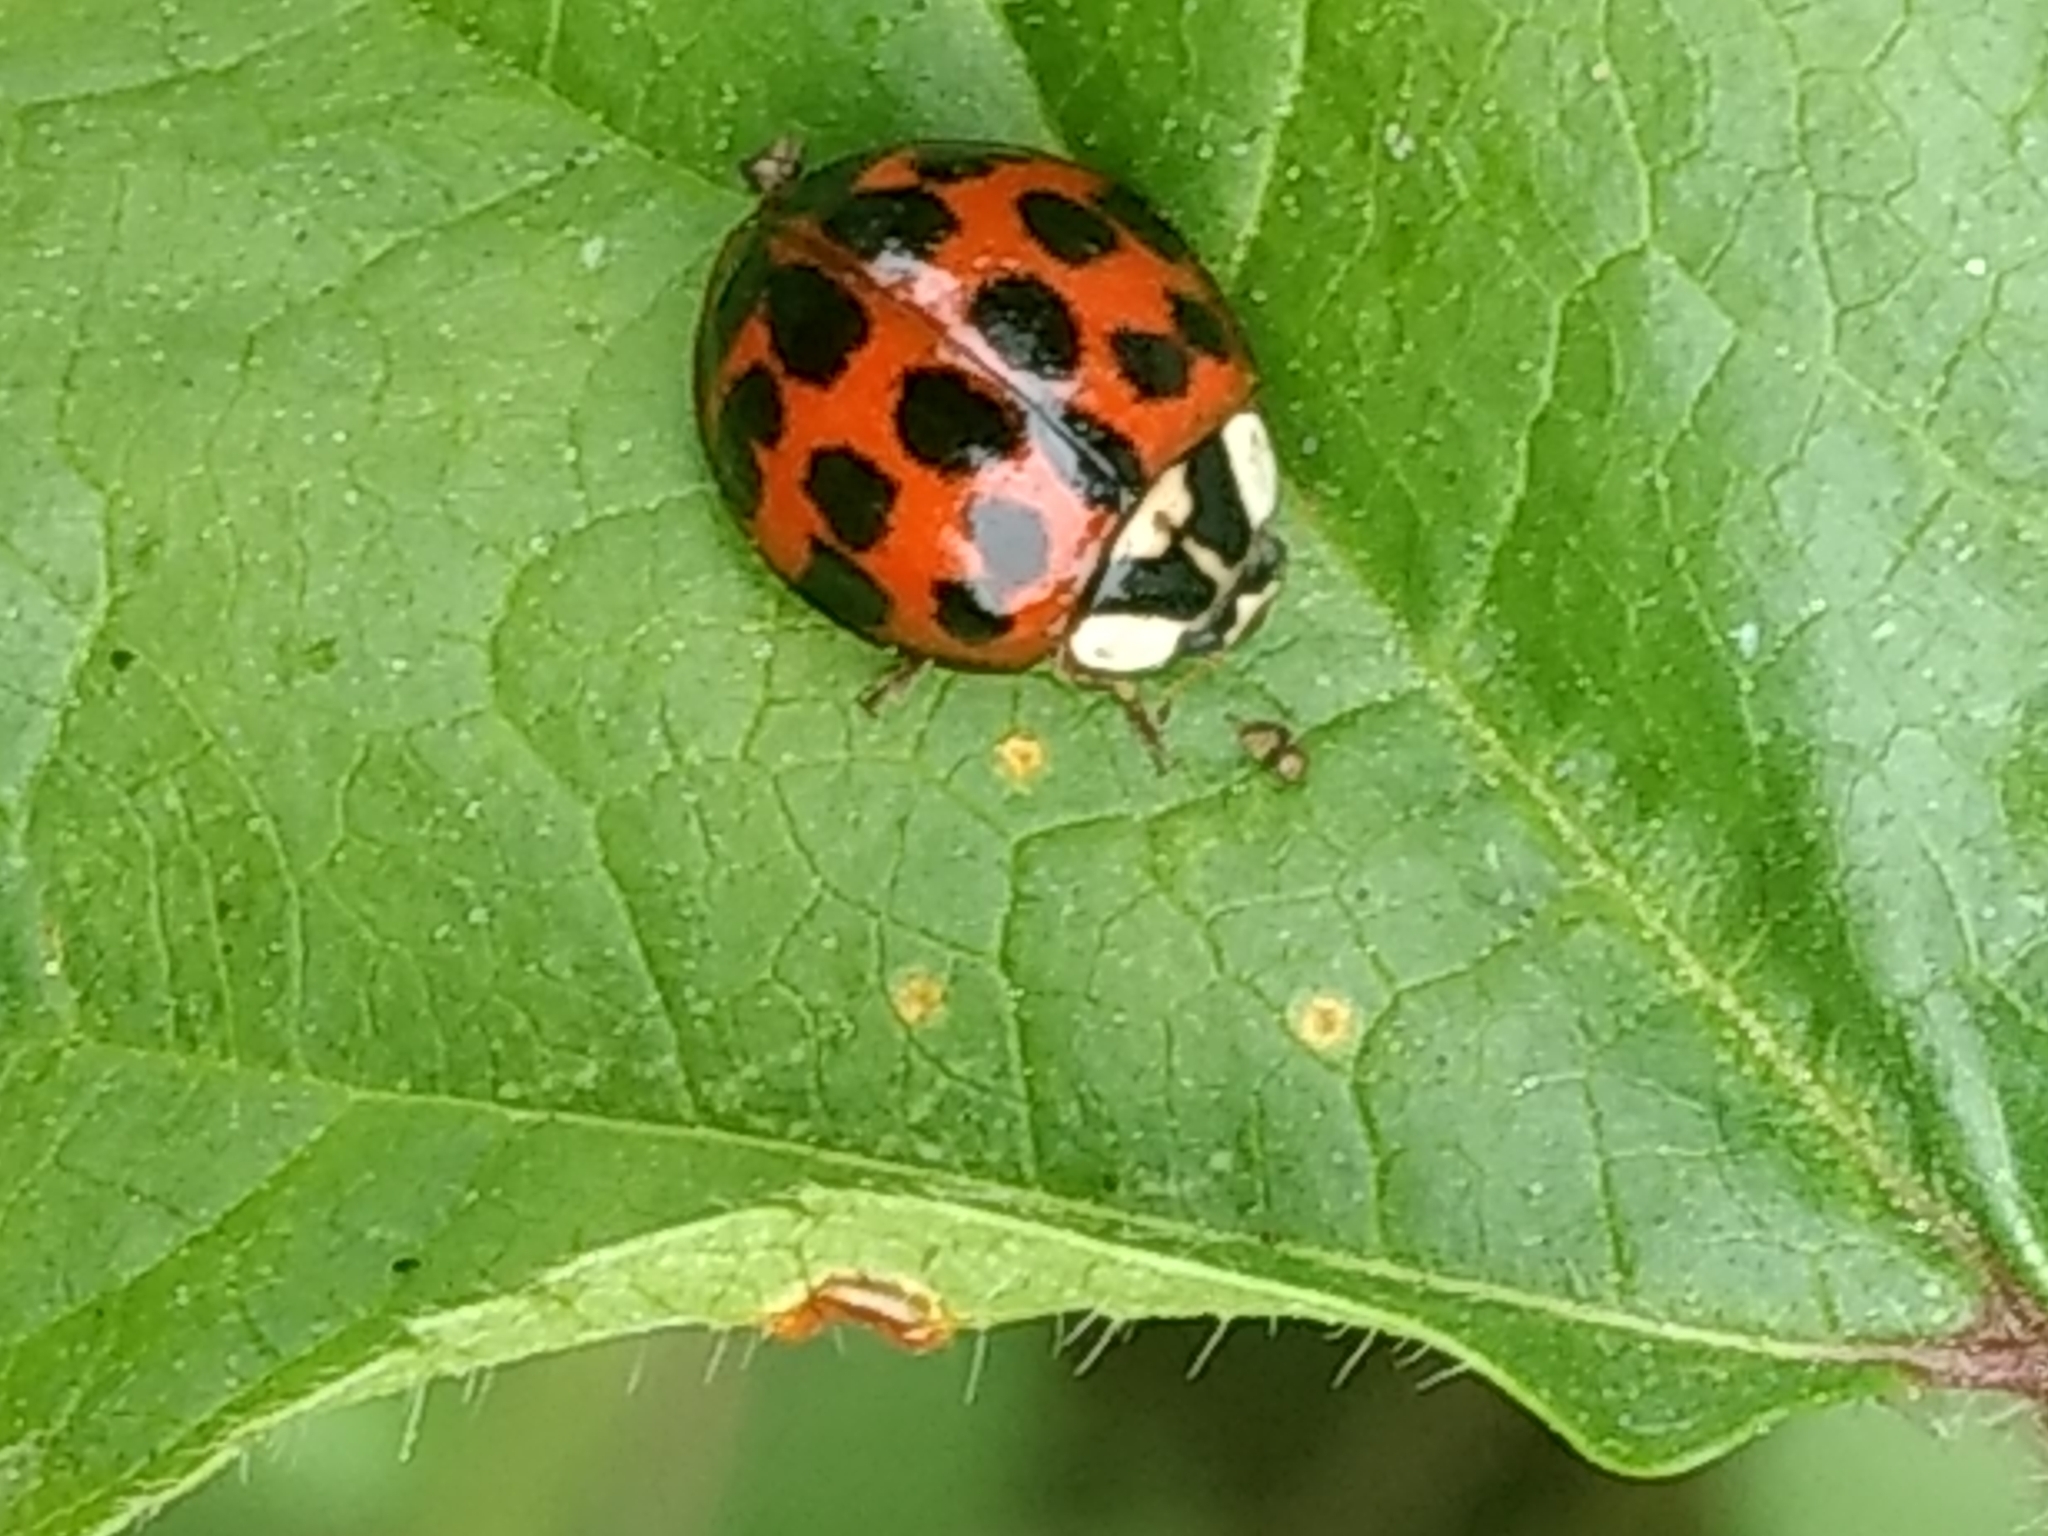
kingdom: Animalia
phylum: Arthropoda
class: Insecta
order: Coleoptera
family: Coccinellidae
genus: Harmonia
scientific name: Harmonia axyridis
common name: Harlequin ladybird
